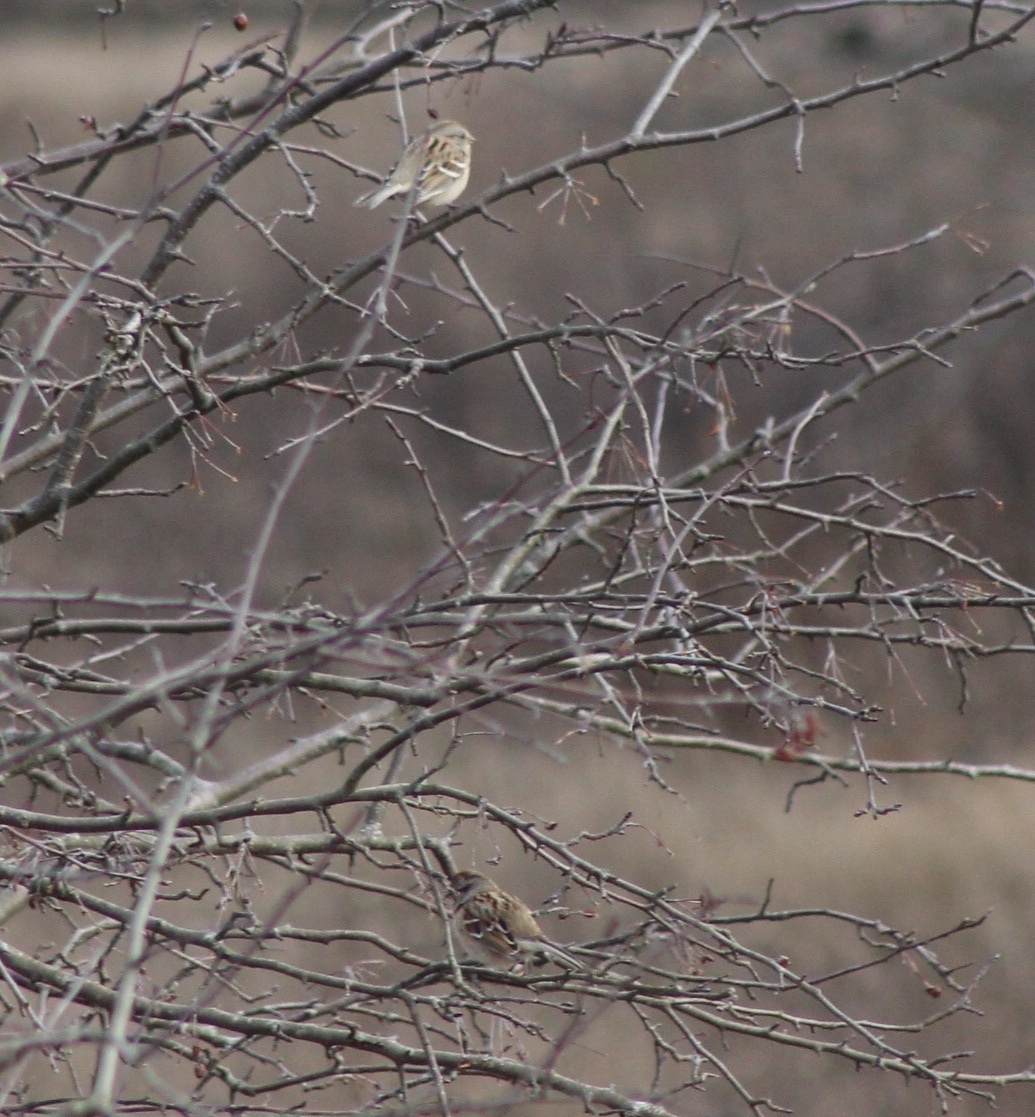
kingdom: Animalia
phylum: Chordata
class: Aves
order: Passeriformes
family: Passerellidae
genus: Spizelloides
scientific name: Spizelloides arborea
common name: American tree sparrow
